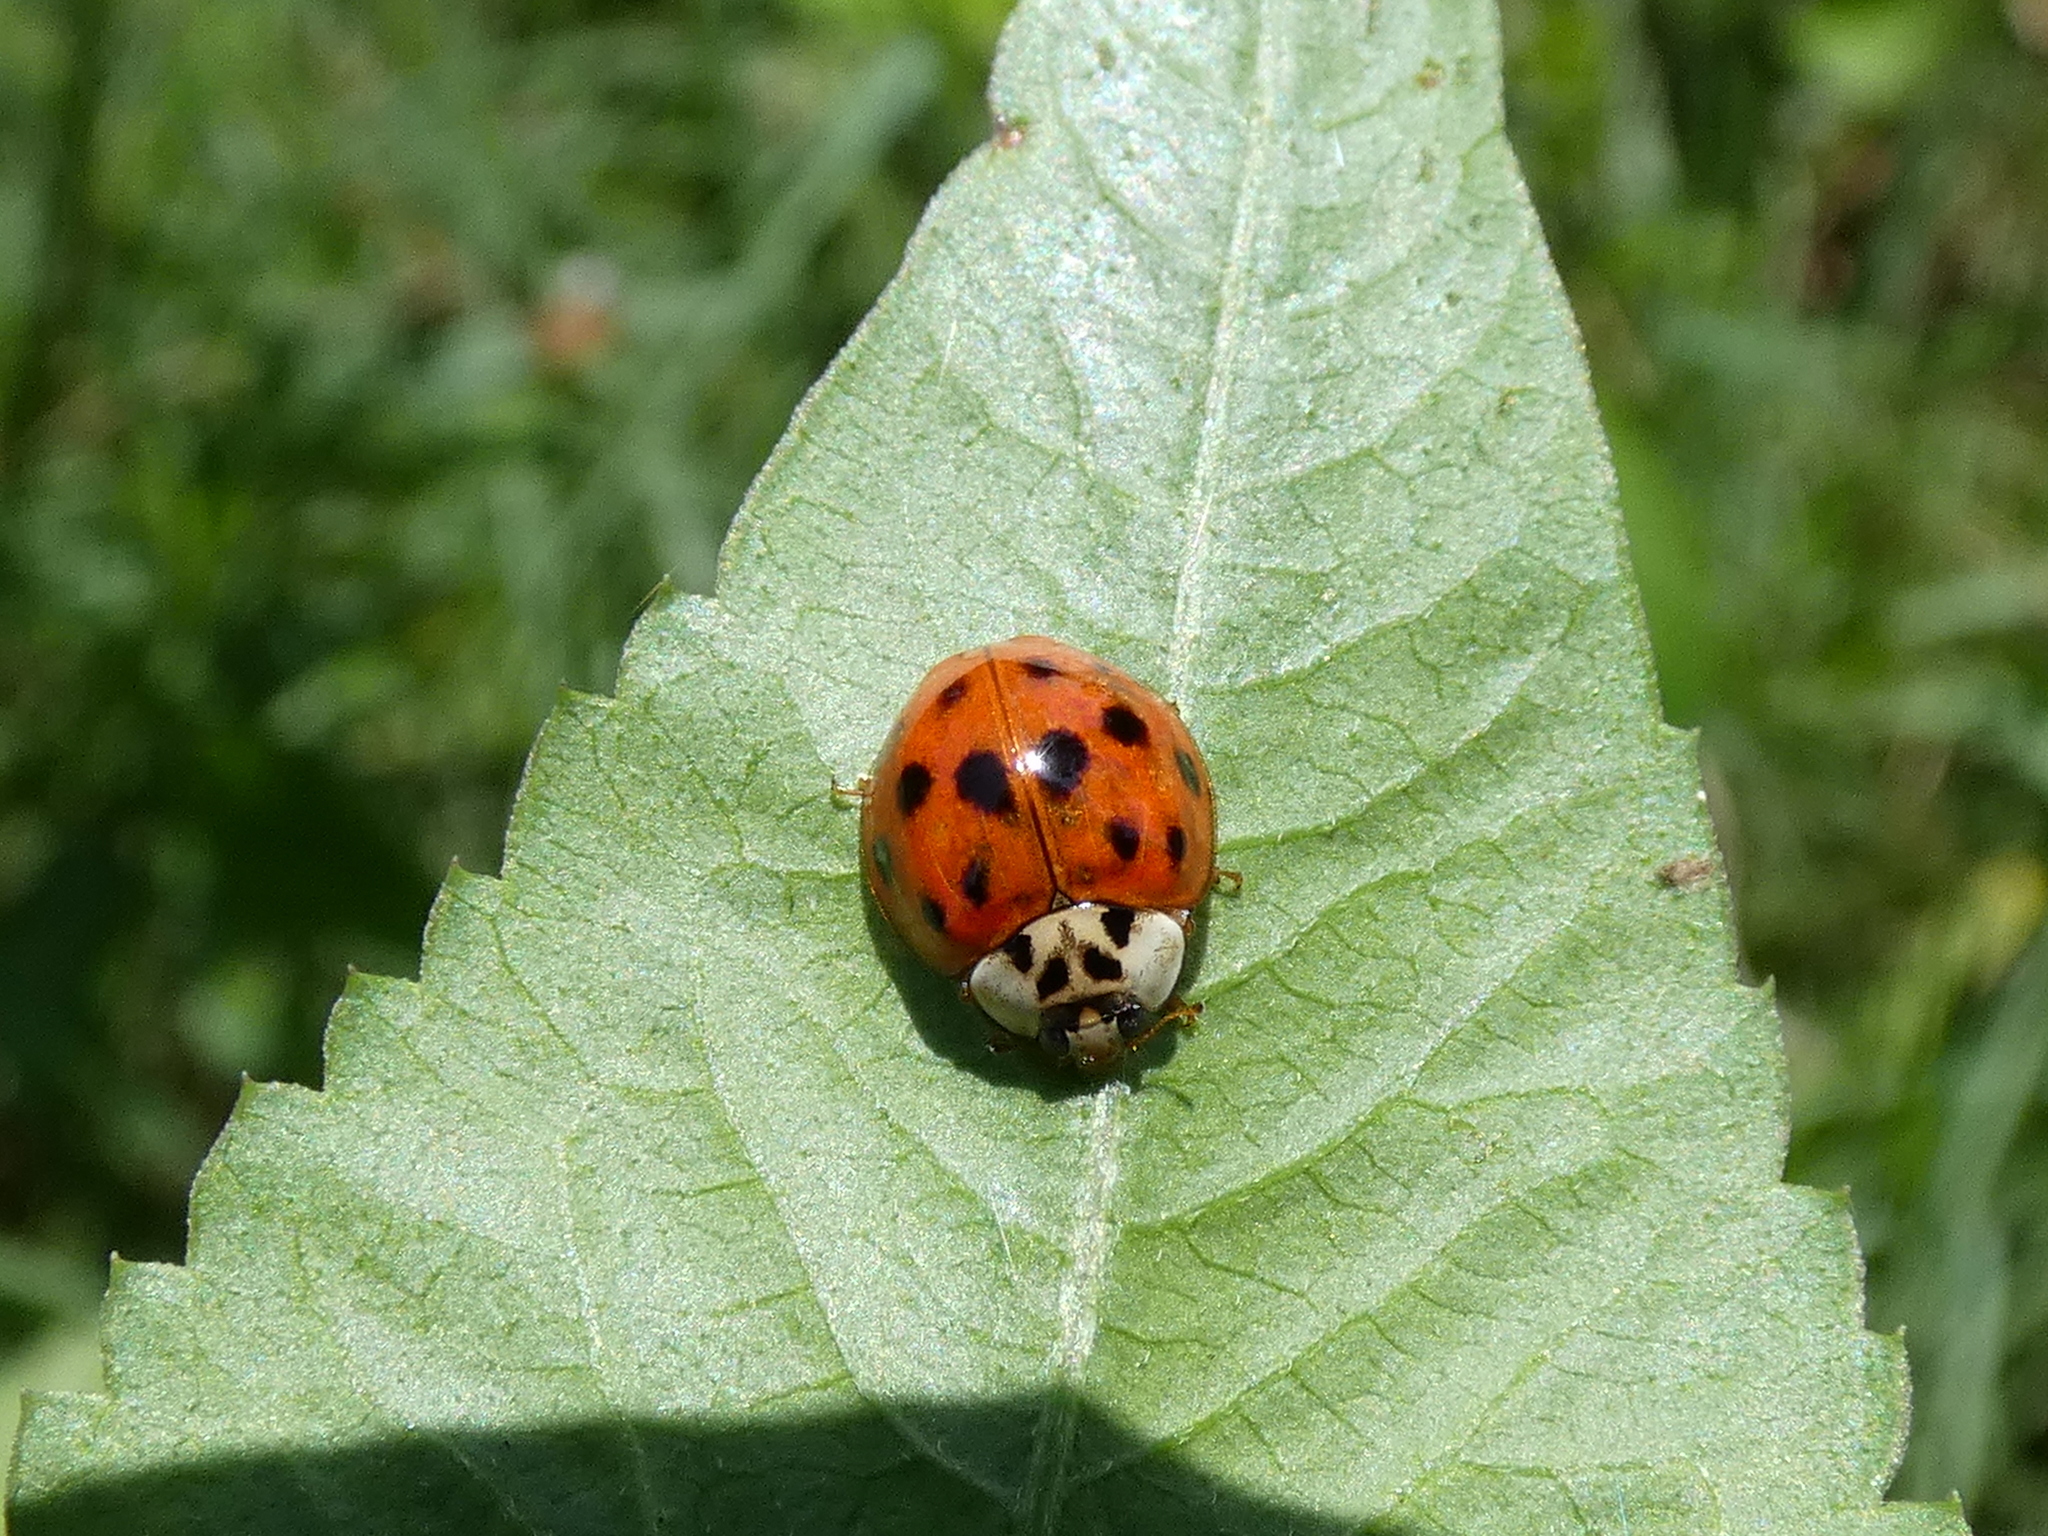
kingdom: Animalia
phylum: Arthropoda
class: Insecta
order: Coleoptera
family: Coccinellidae
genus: Harmonia
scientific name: Harmonia axyridis
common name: Harlequin ladybird
